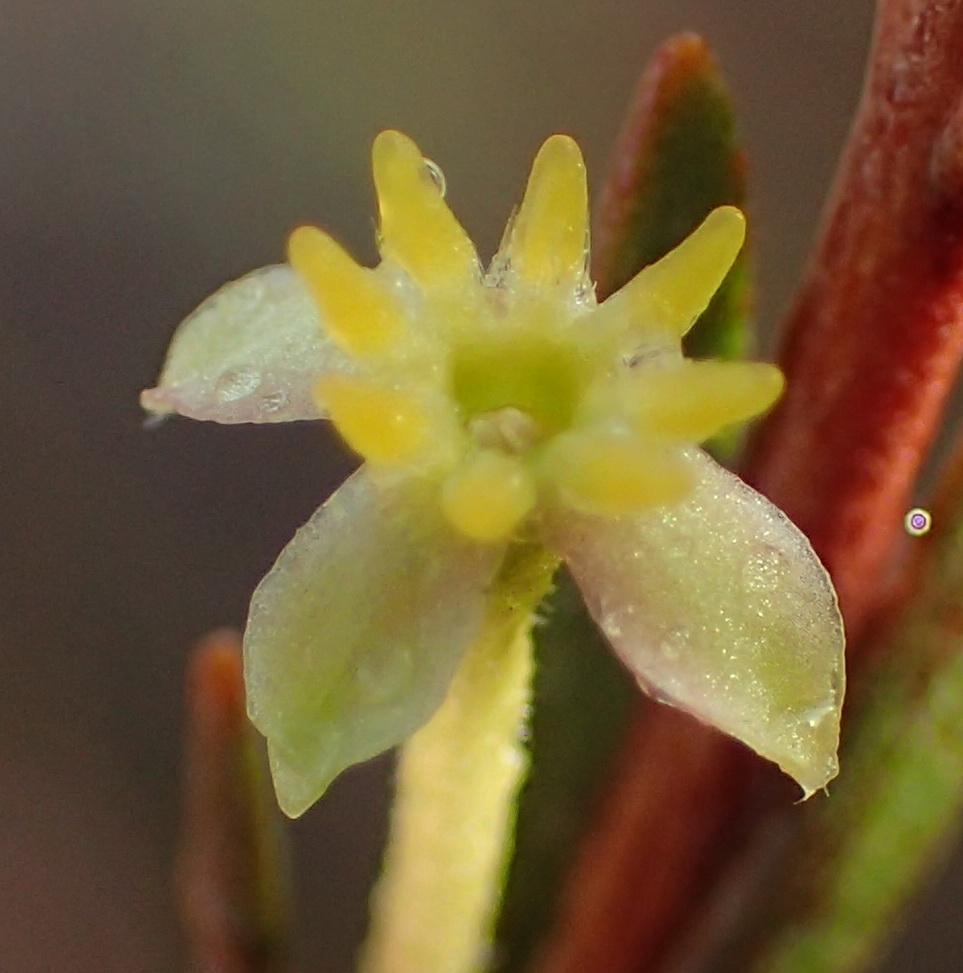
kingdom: Plantae
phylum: Tracheophyta
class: Magnoliopsida
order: Malvales
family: Thymelaeaceae
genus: Struthiola
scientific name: Struthiola eckloniana
